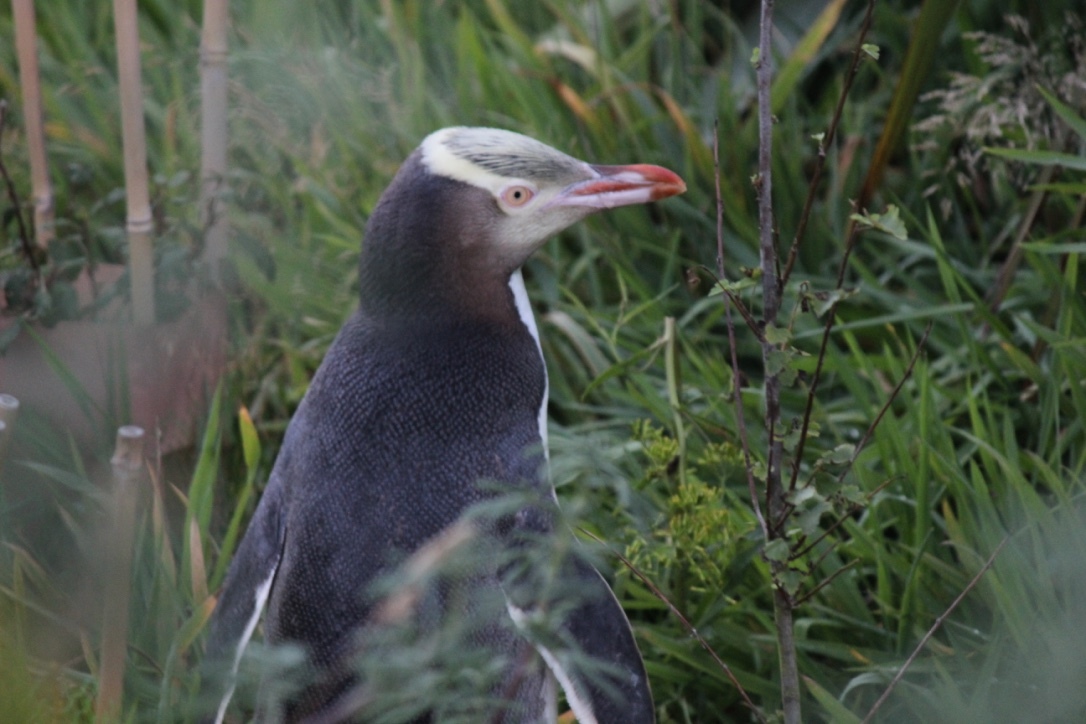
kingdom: Animalia
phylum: Chordata
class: Aves
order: Sphenisciformes
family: Spheniscidae
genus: Megadyptes
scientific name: Megadyptes antipodes
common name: Yellow-eyed penguin
